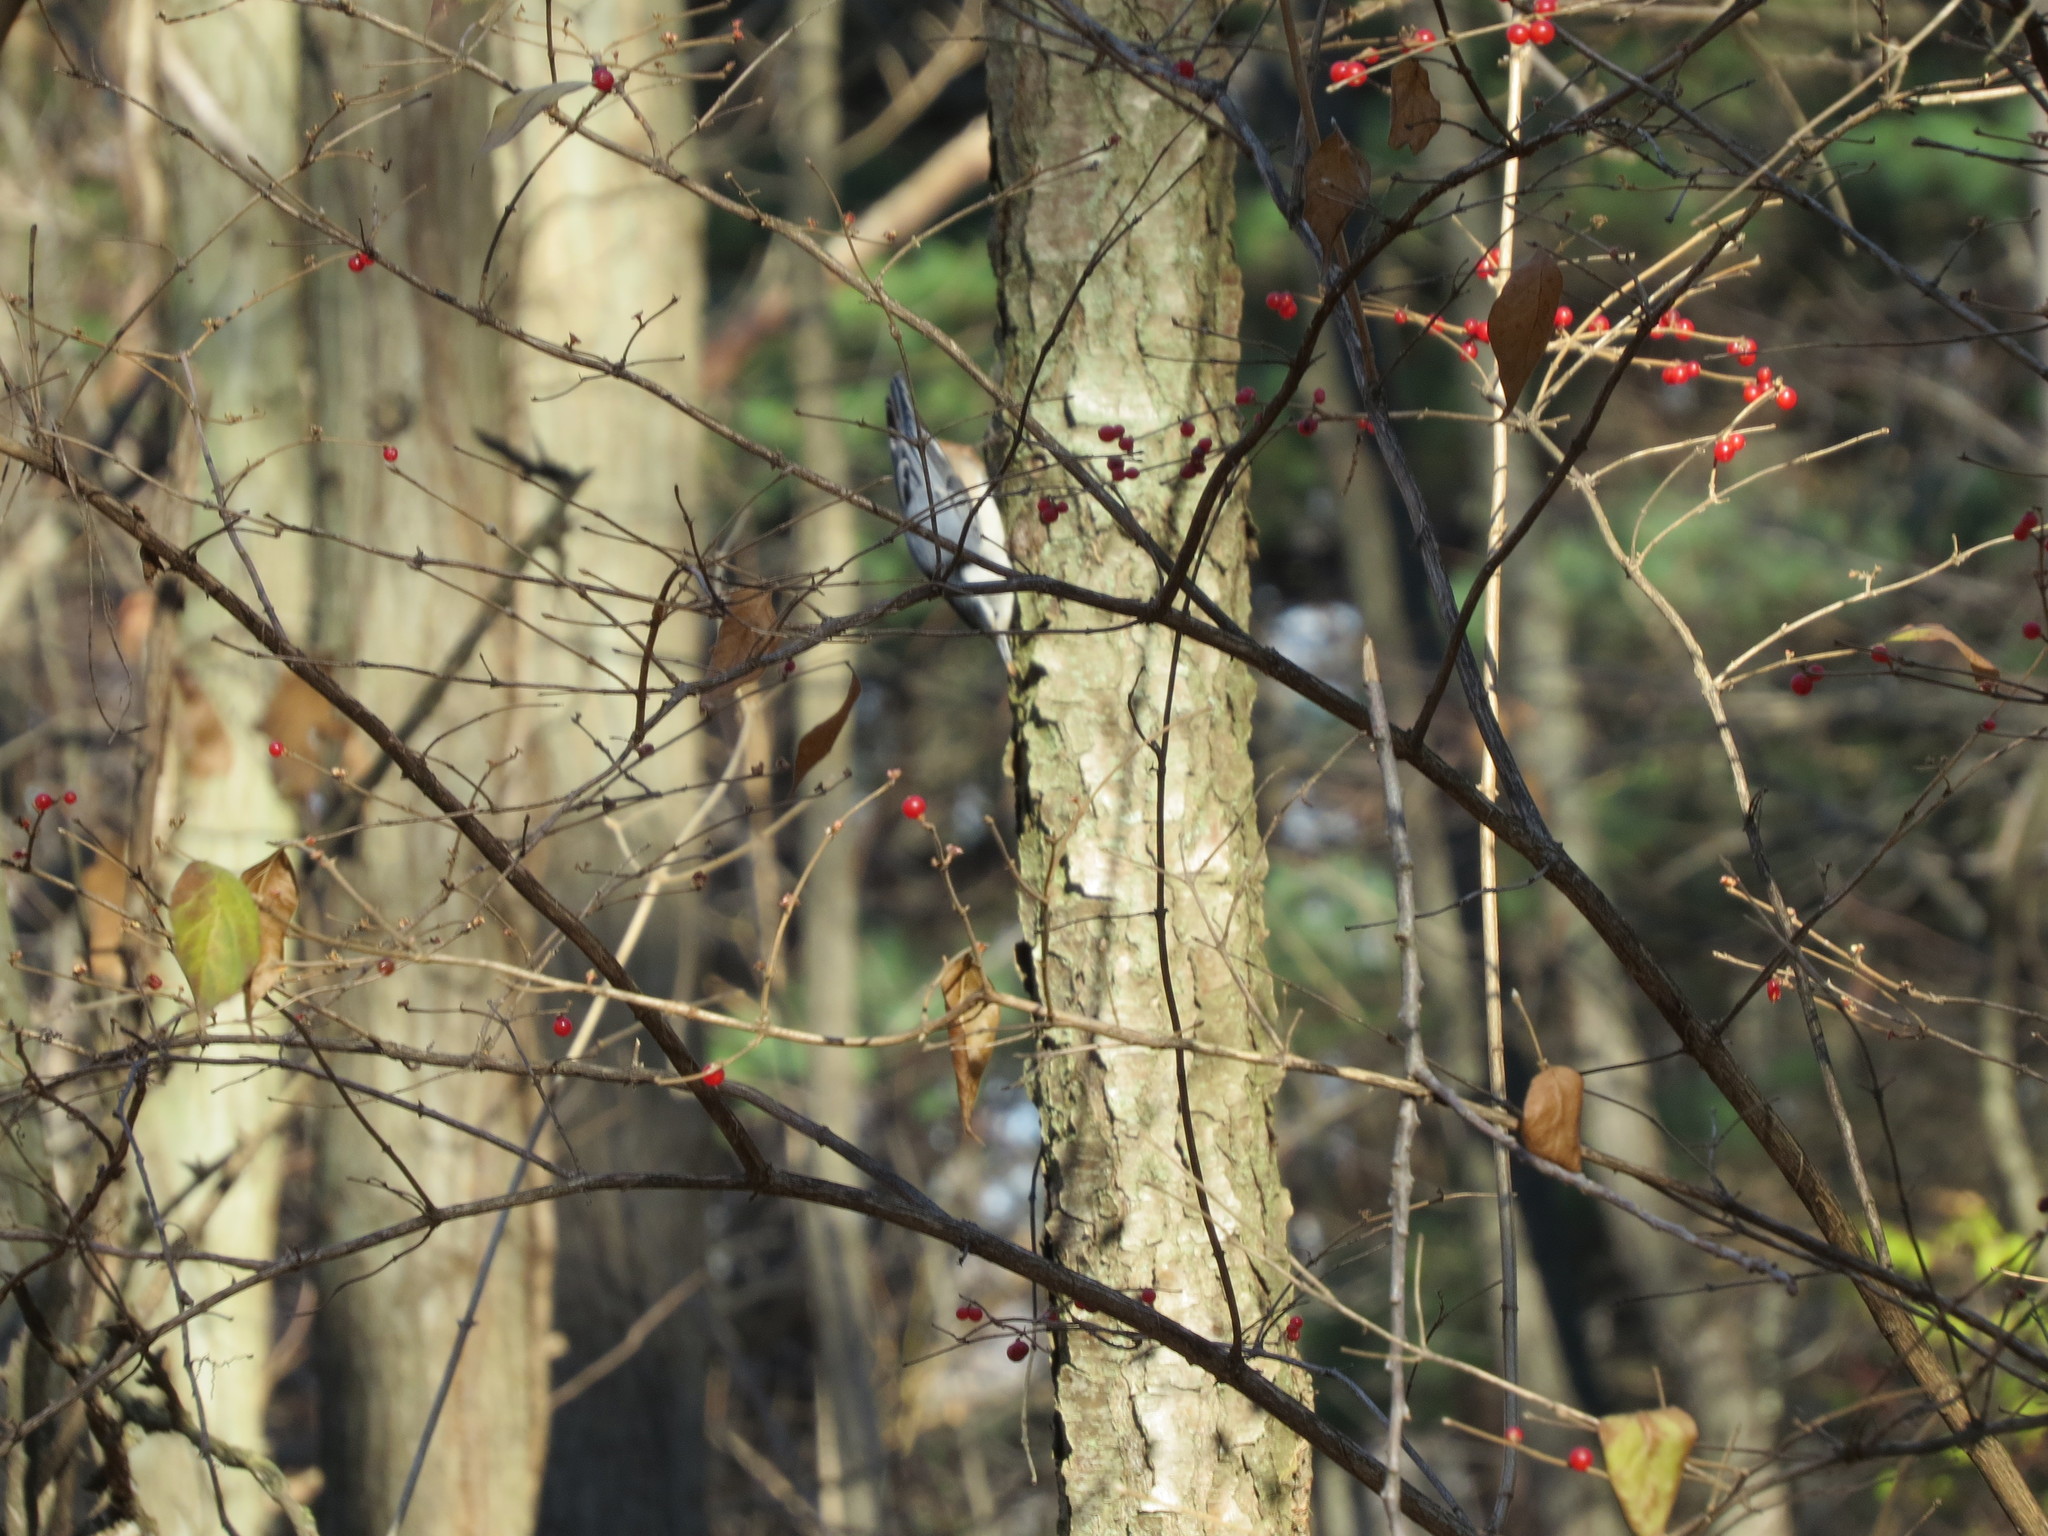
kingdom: Animalia
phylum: Chordata
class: Aves
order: Passeriformes
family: Sittidae
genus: Sitta
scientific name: Sitta carolinensis
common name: White-breasted nuthatch
